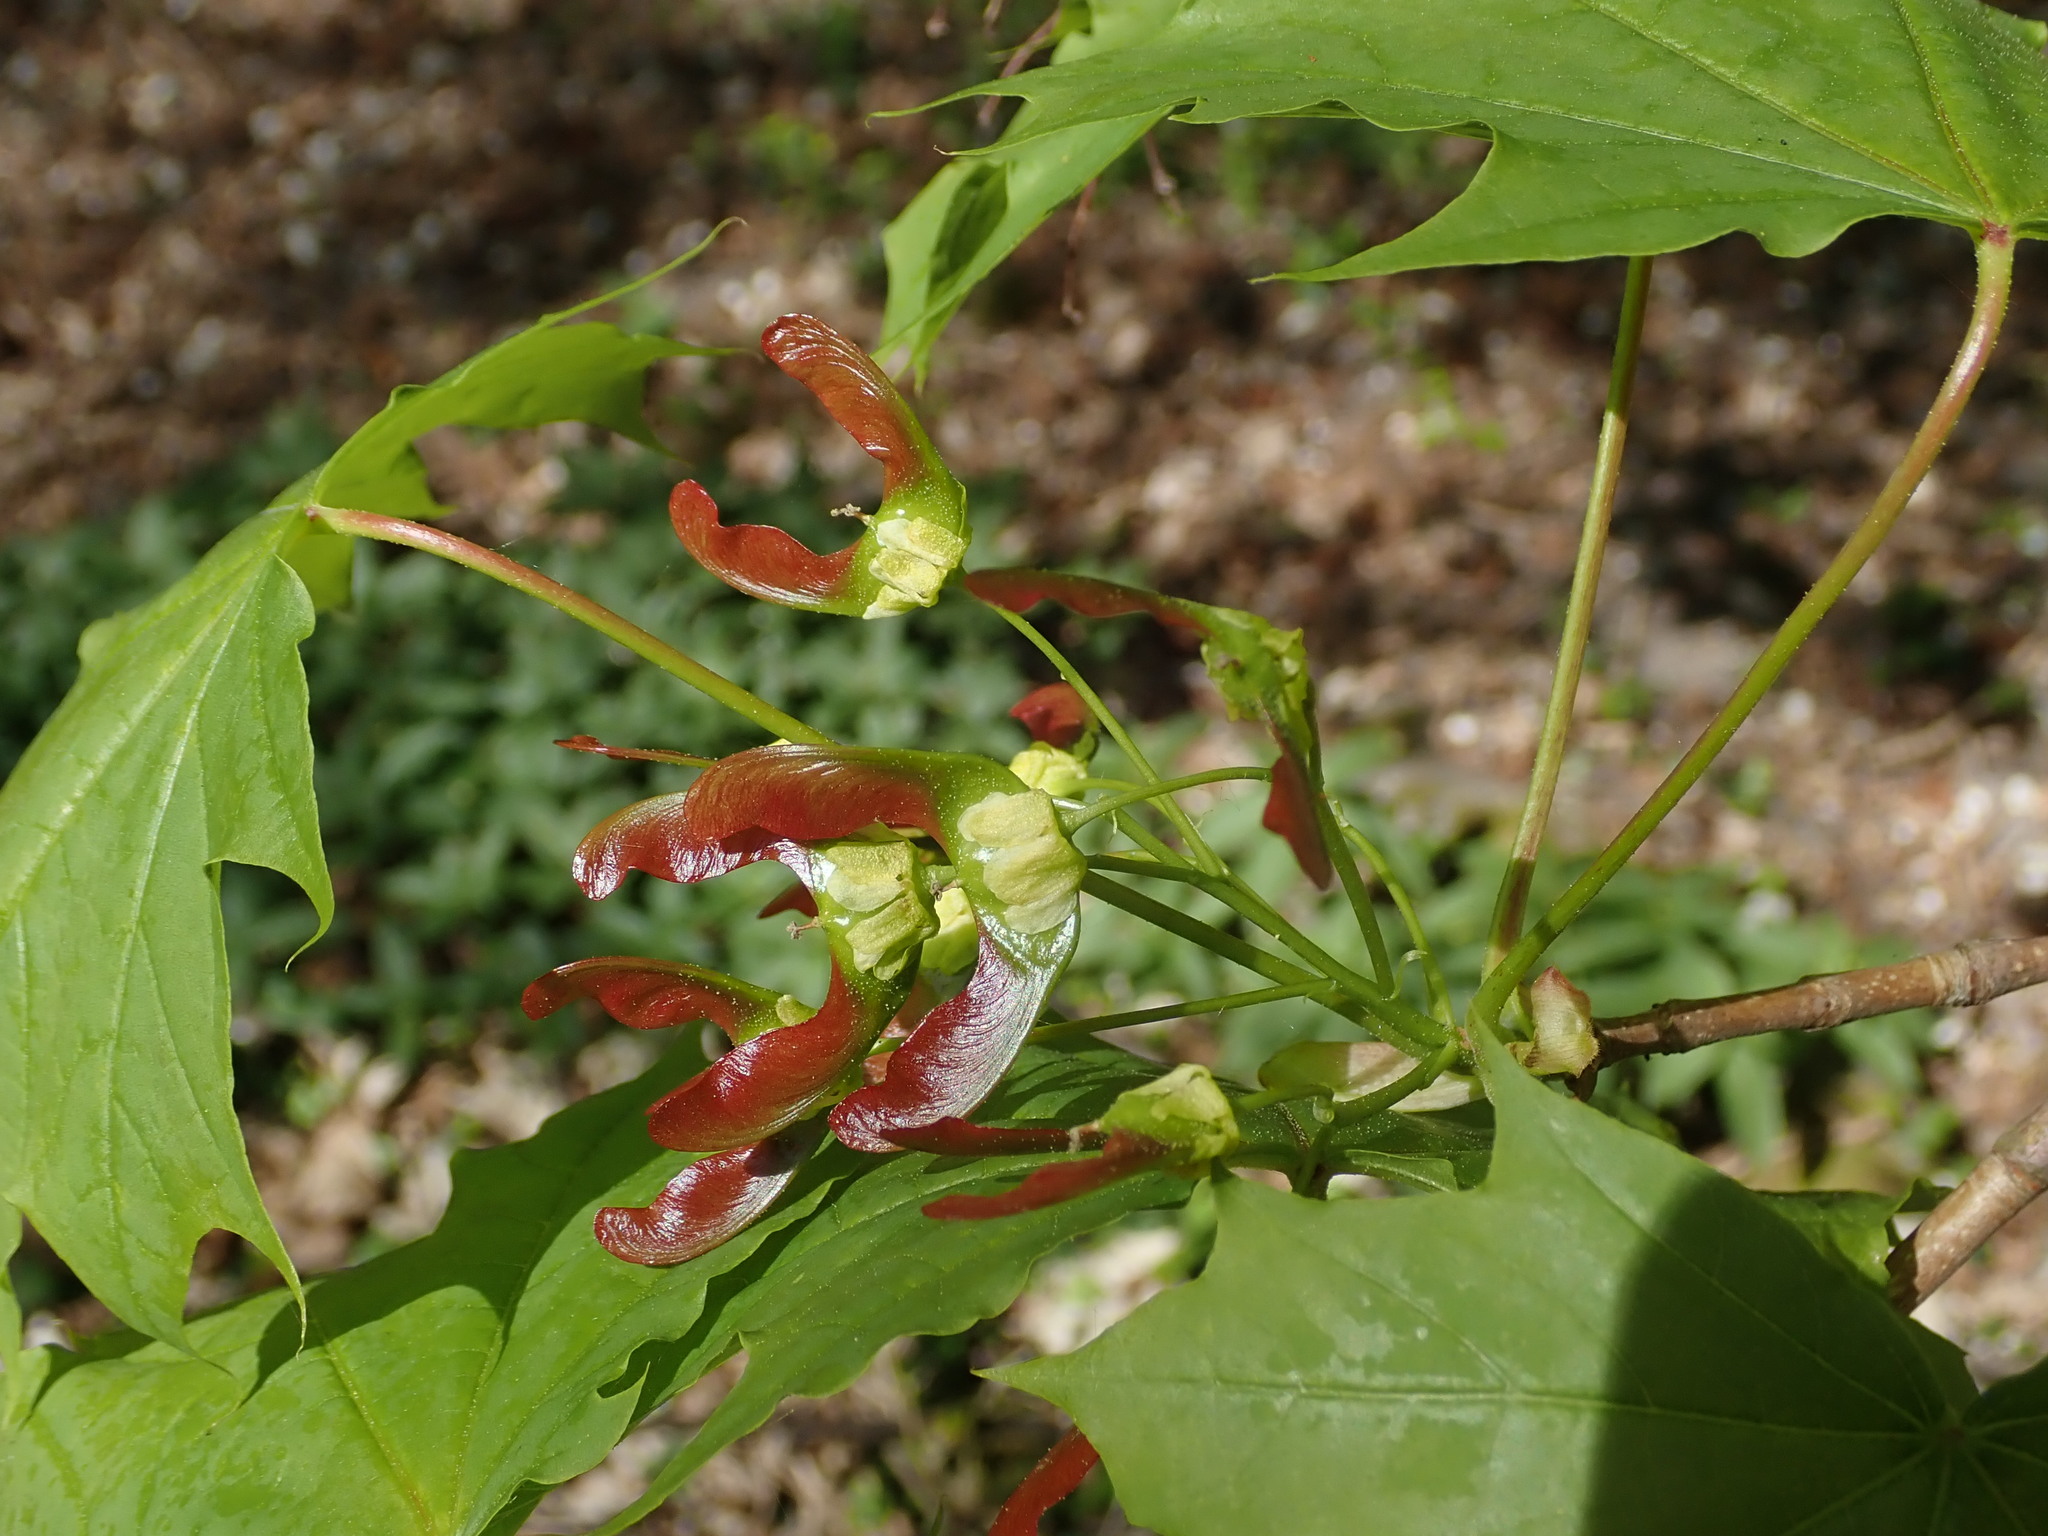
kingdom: Plantae
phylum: Tracheophyta
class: Magnoliopsida
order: Sapindales
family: Sapindaceae
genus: Acer
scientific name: Acer platanoides
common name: Norway maple
